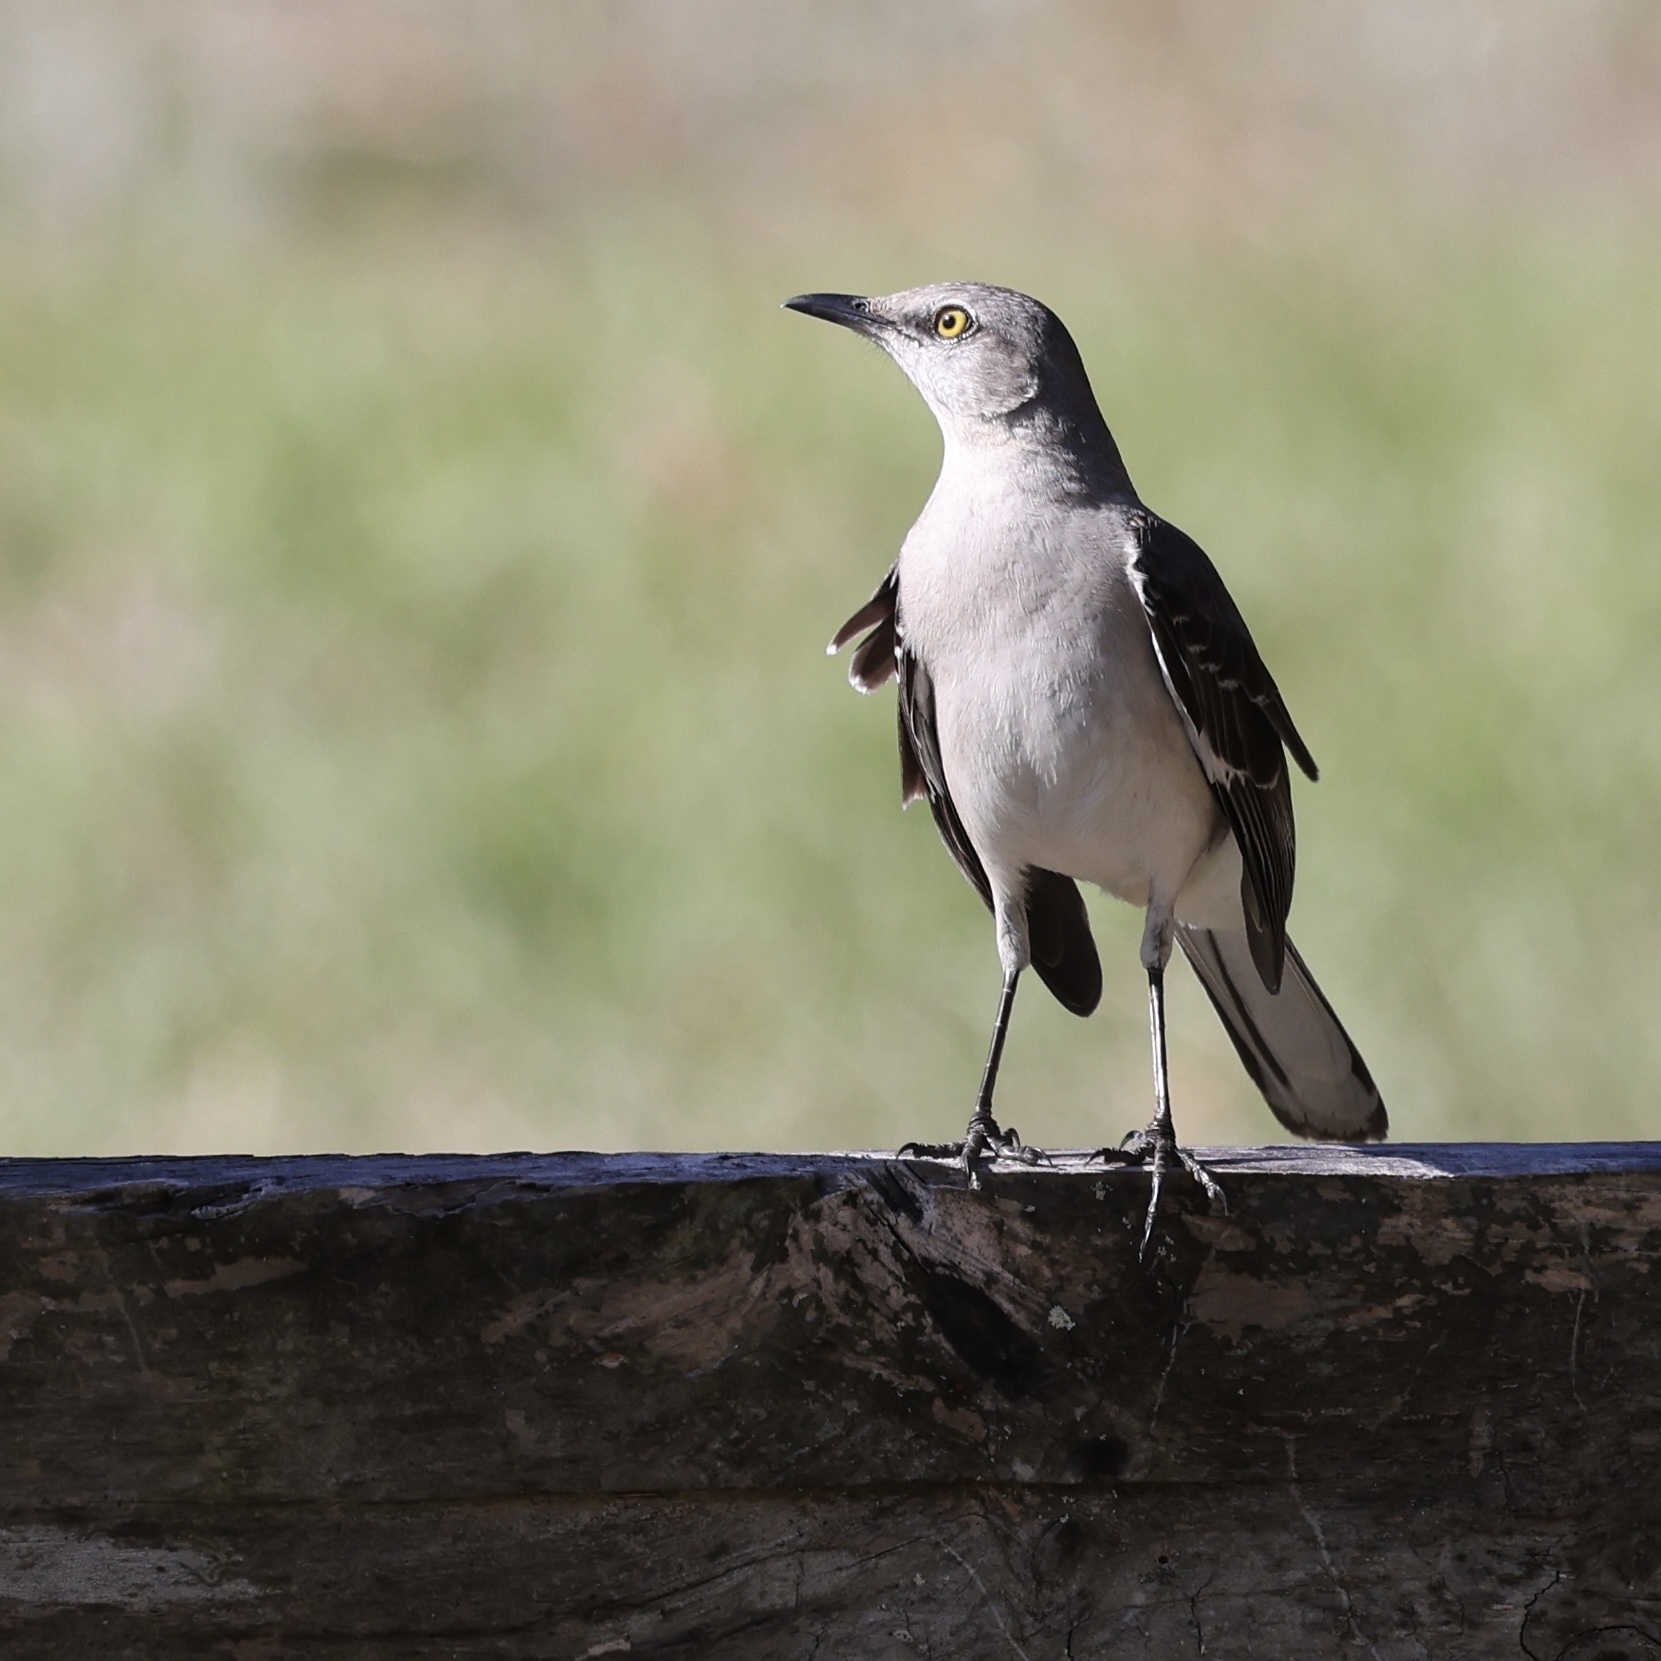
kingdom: Animalia
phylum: Chordata
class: Aves
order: Passeriformes
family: Mimidae
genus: Mimus
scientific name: Mimus polyglottos
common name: Northern mockingbird
